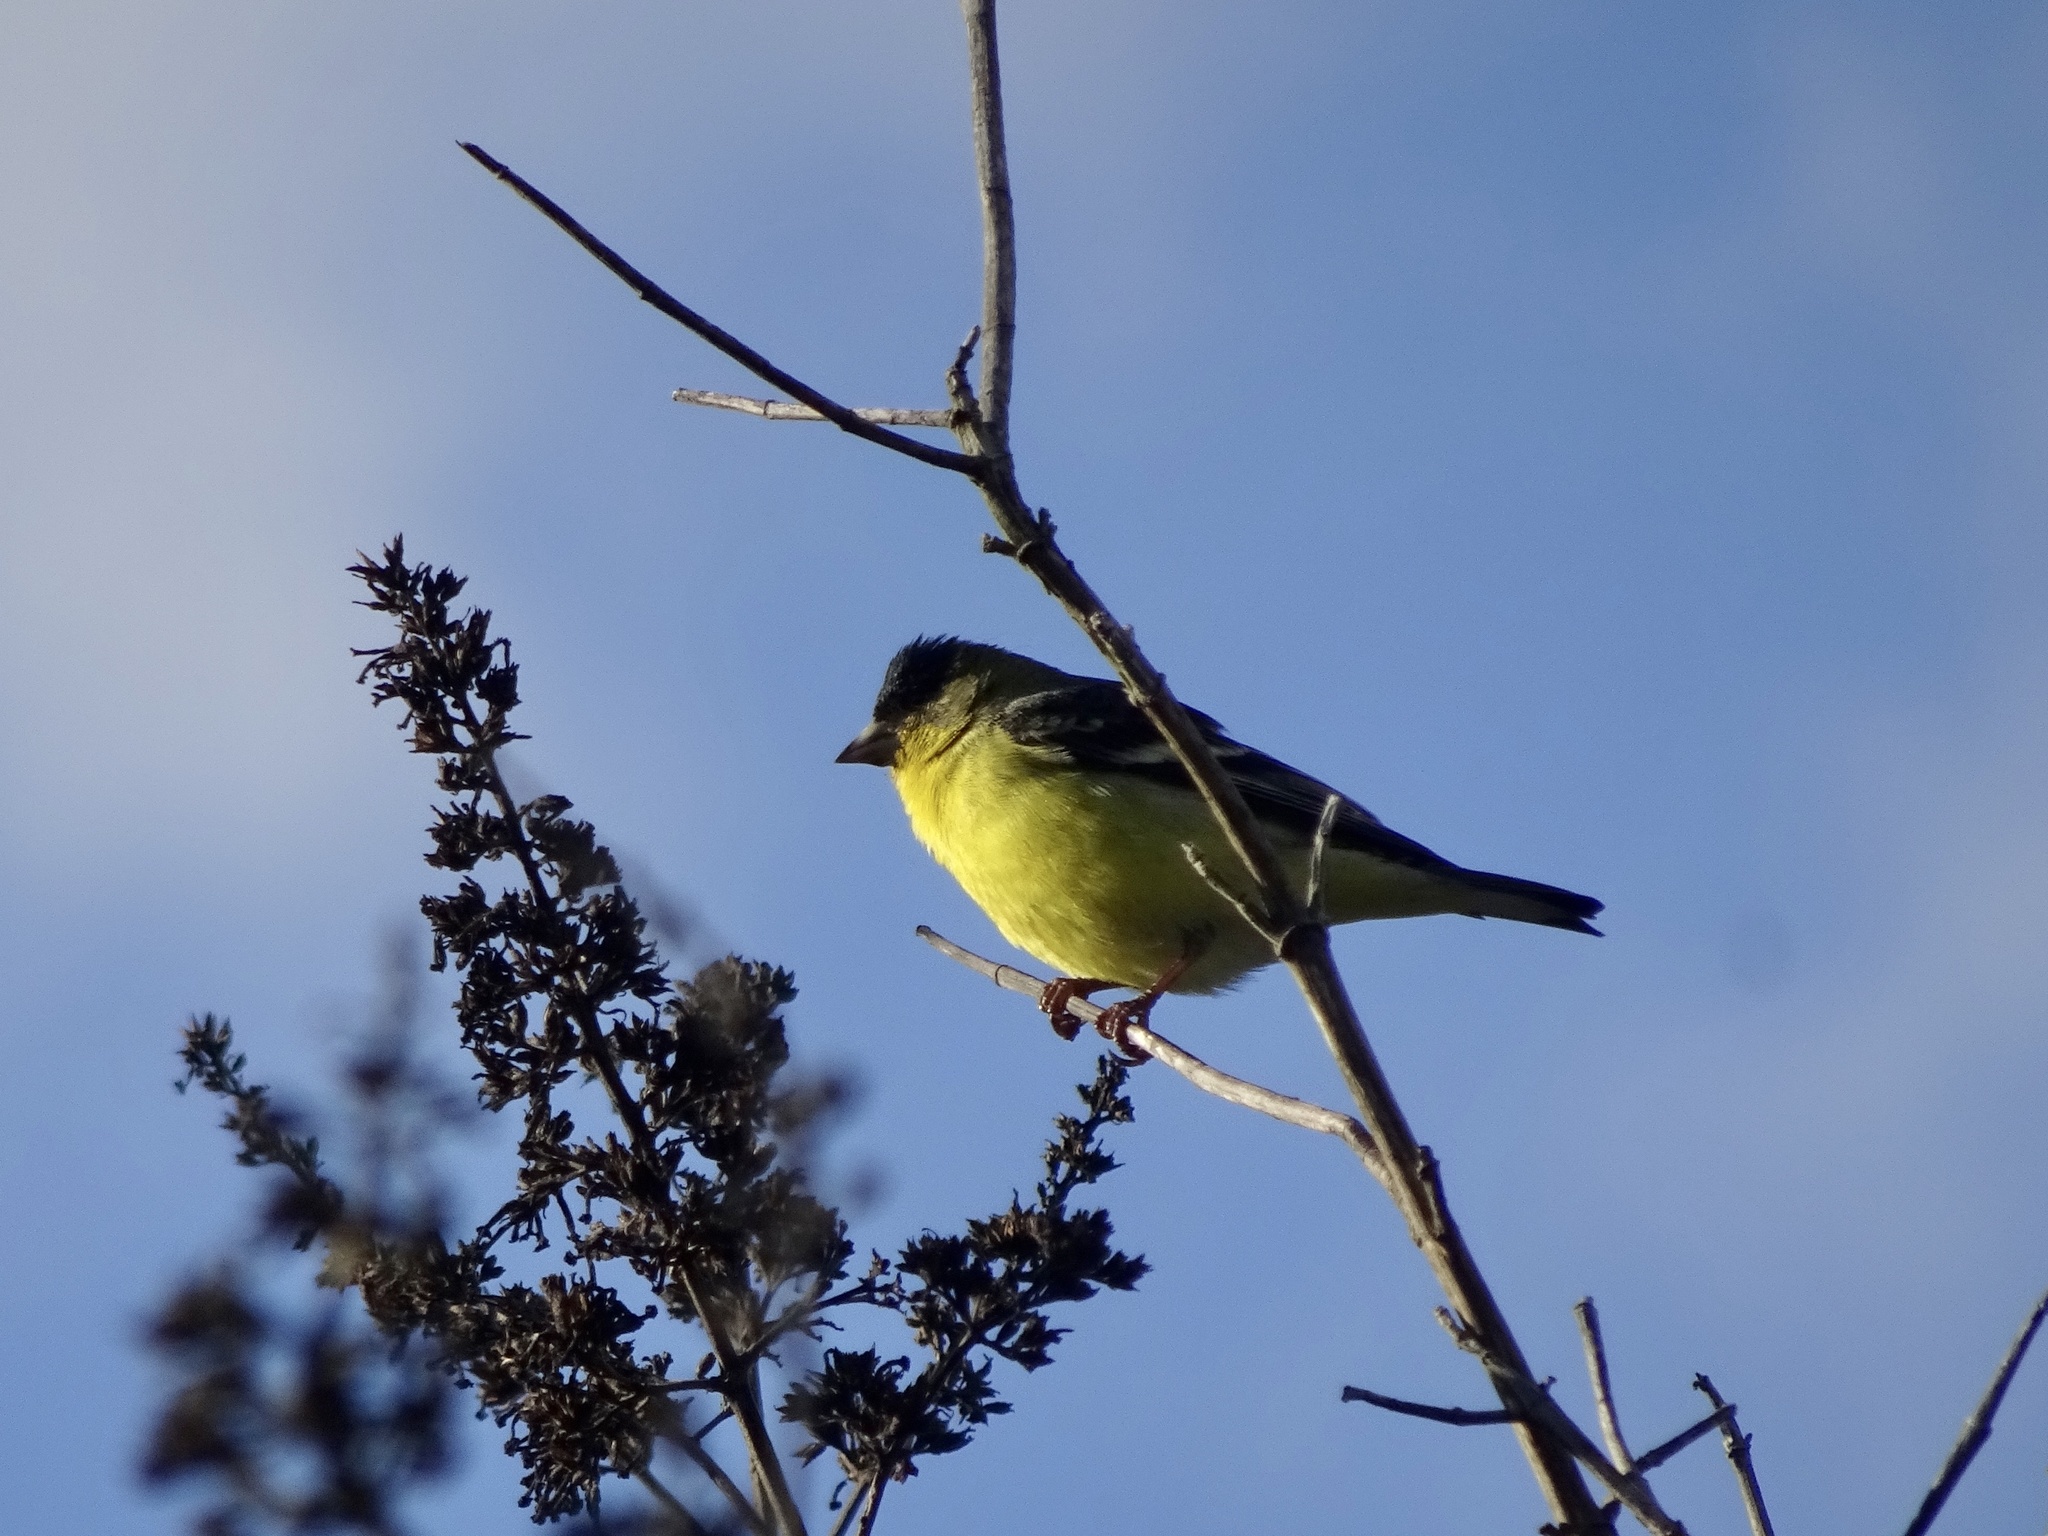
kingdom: Animalia
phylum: Chordata
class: Aves
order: Passeriformes
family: Fringillidae
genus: Spinus
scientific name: Spinus psaltria
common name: Lesser goldfinch
